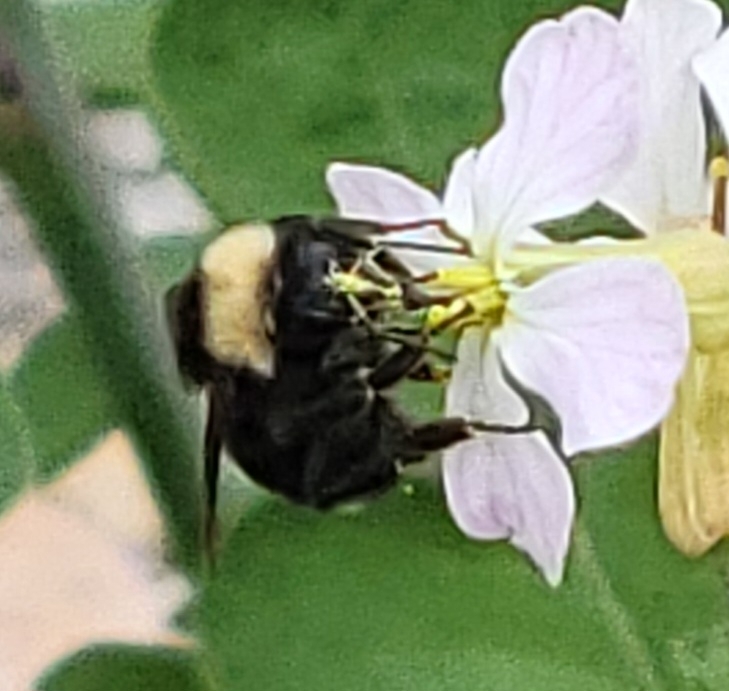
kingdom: Animalia
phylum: Arthropoda
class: Insecta
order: Hymenoptera
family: Apidae
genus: Bombus
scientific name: Bombus californicus
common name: California bumble bee
